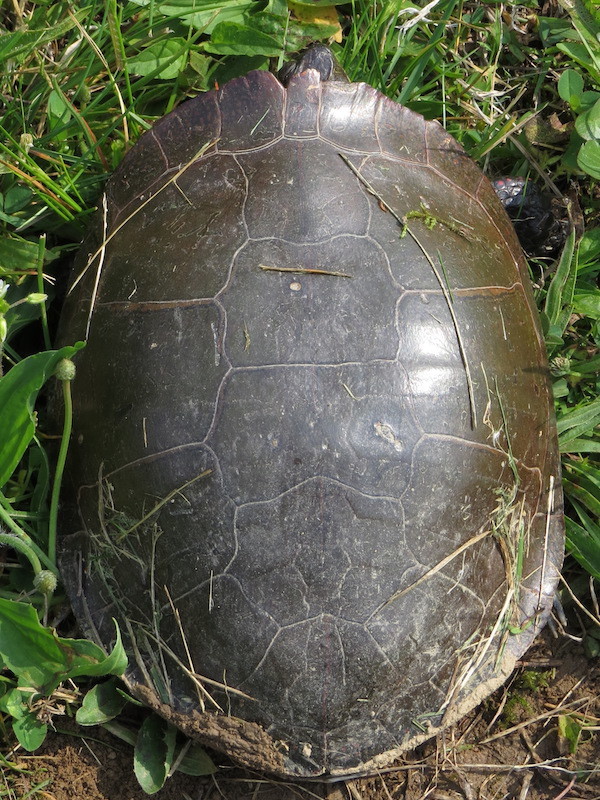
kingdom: Animalia
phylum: Chordata
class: Testudines
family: Emydidae
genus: Chrysemys
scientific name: Chrysemys picta
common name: Painted turtle
